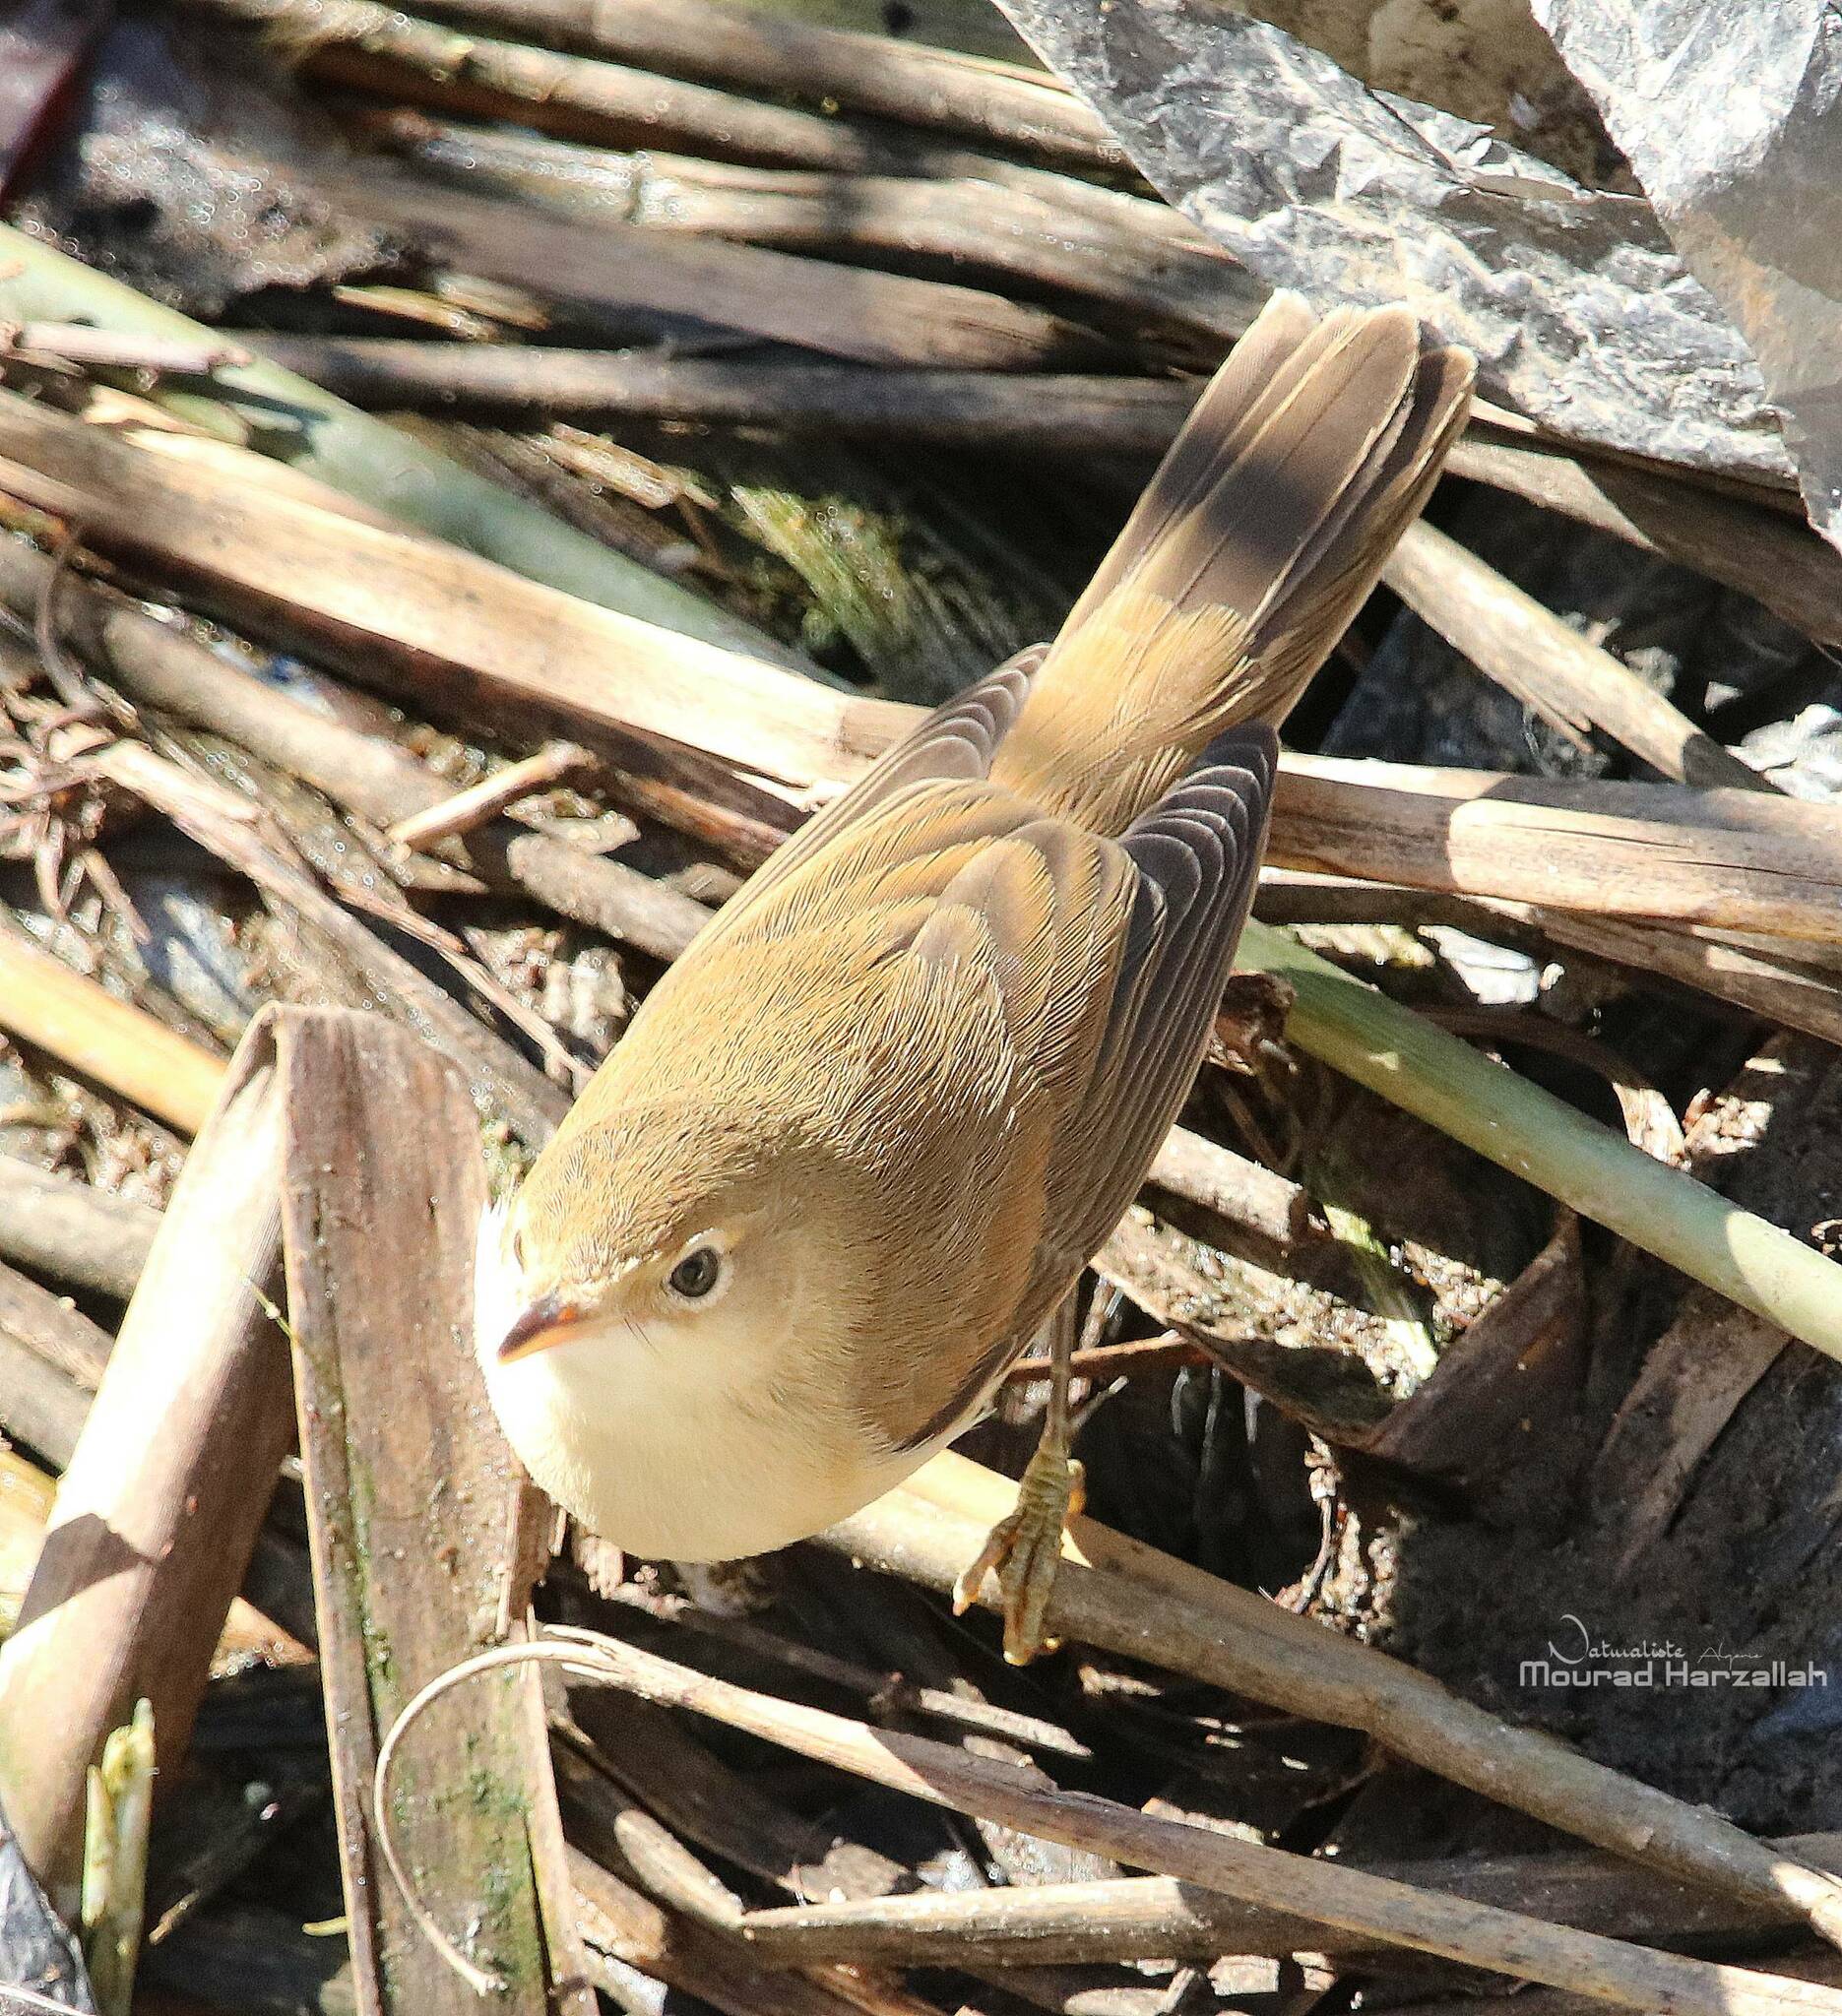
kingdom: Animalia
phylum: Chordata
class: Aves
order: Passeriformes
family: Acrocephalidae
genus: Acrocephalus
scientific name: Acrocephalus scirpaceus
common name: Eurasian reed warbler
